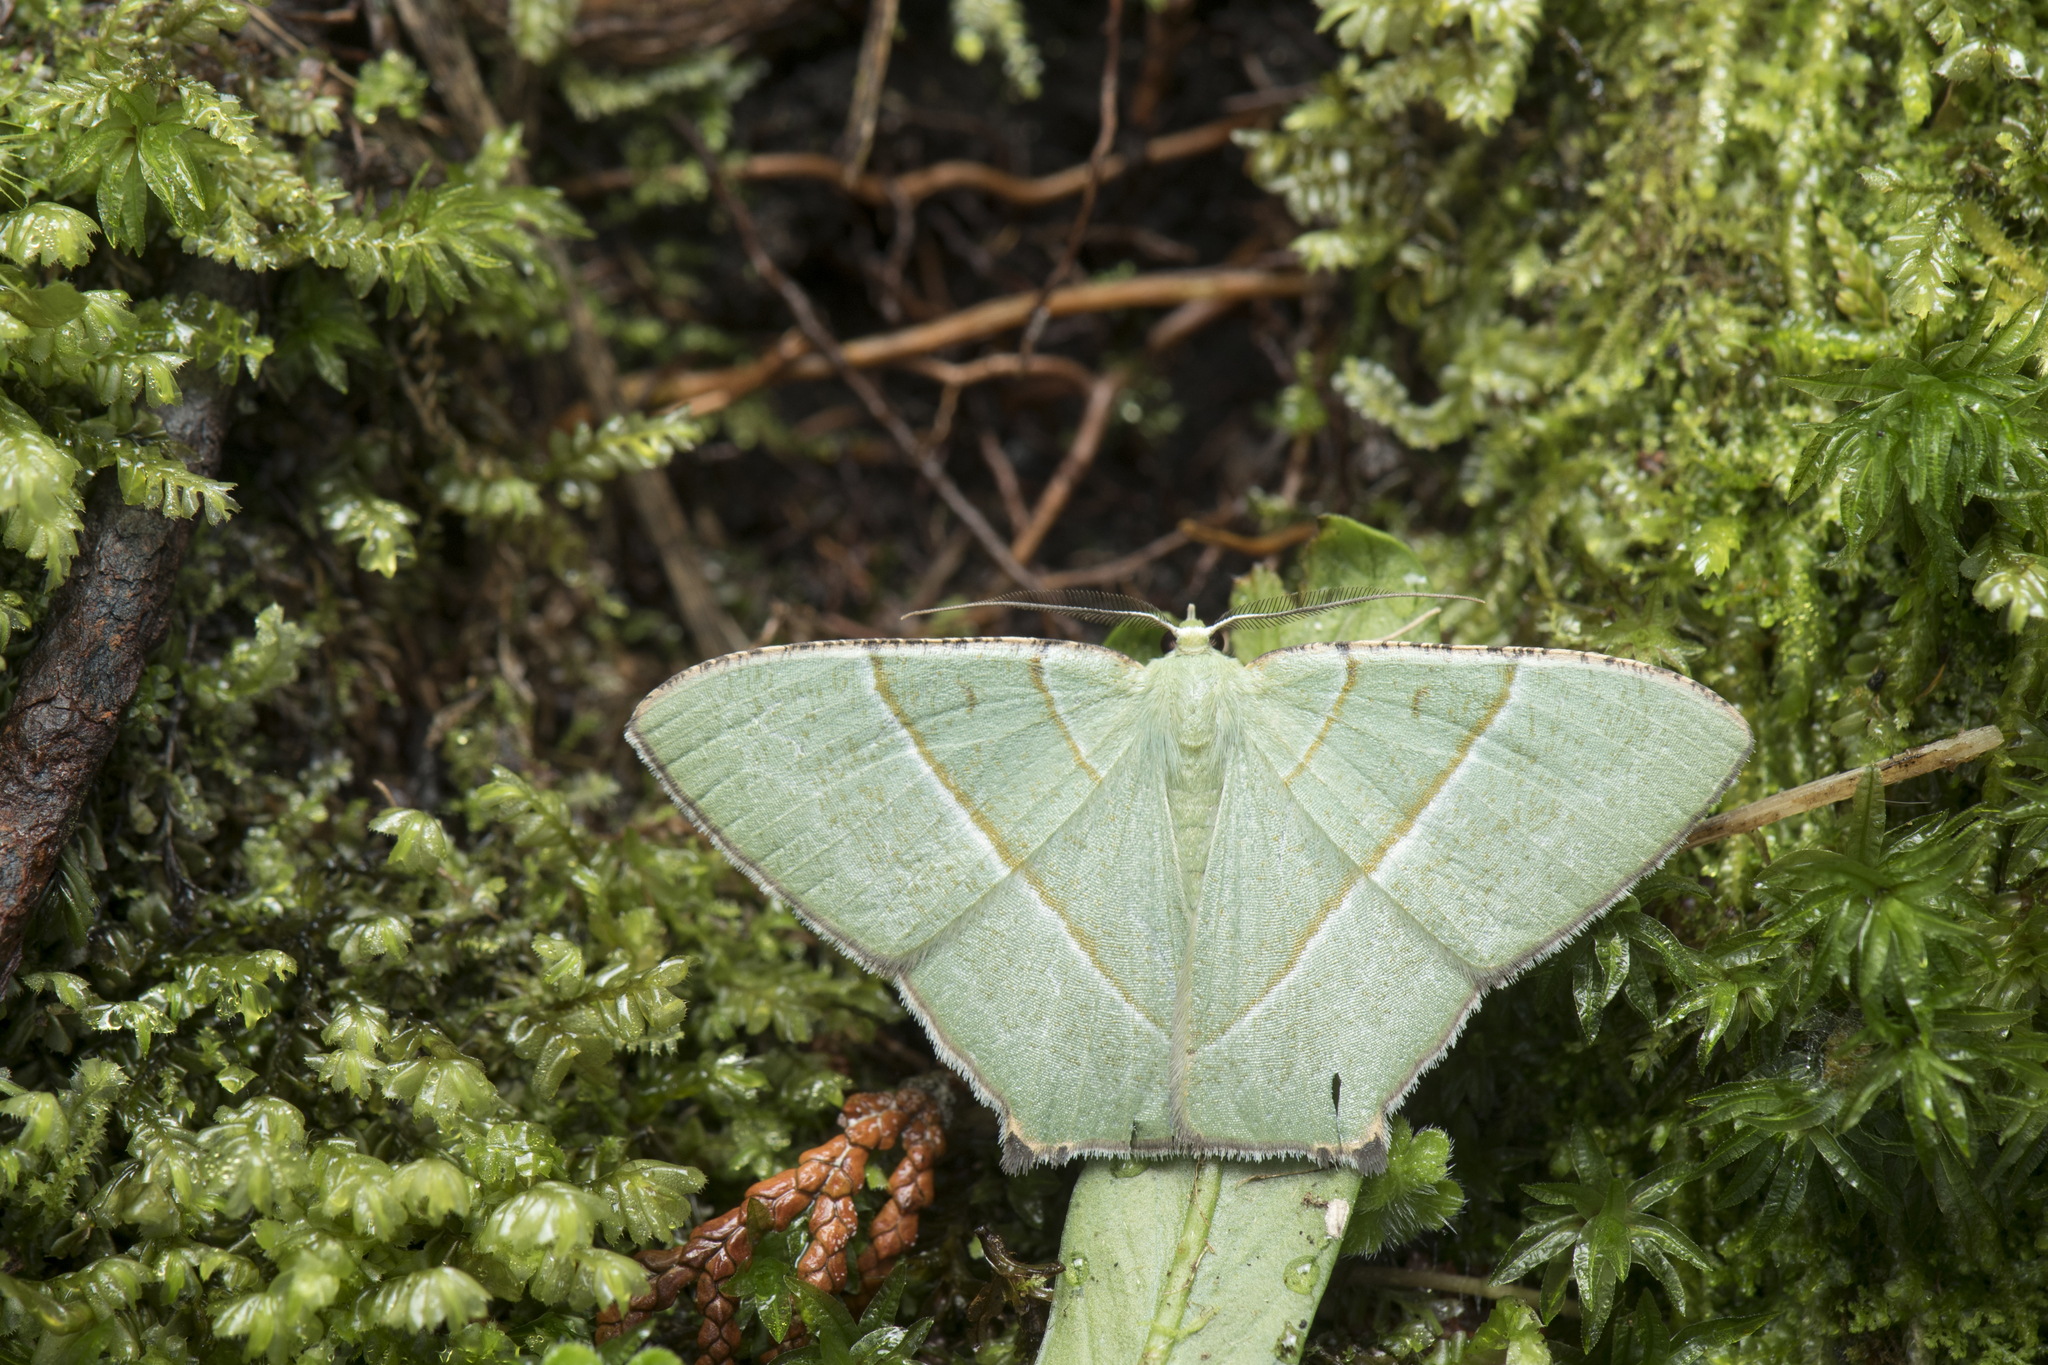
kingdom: Animalia
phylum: Arthropoda
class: Insecta
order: Lepidoptera
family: Geometridae
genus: Neohipparchus
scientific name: Neohipparchus vallata
